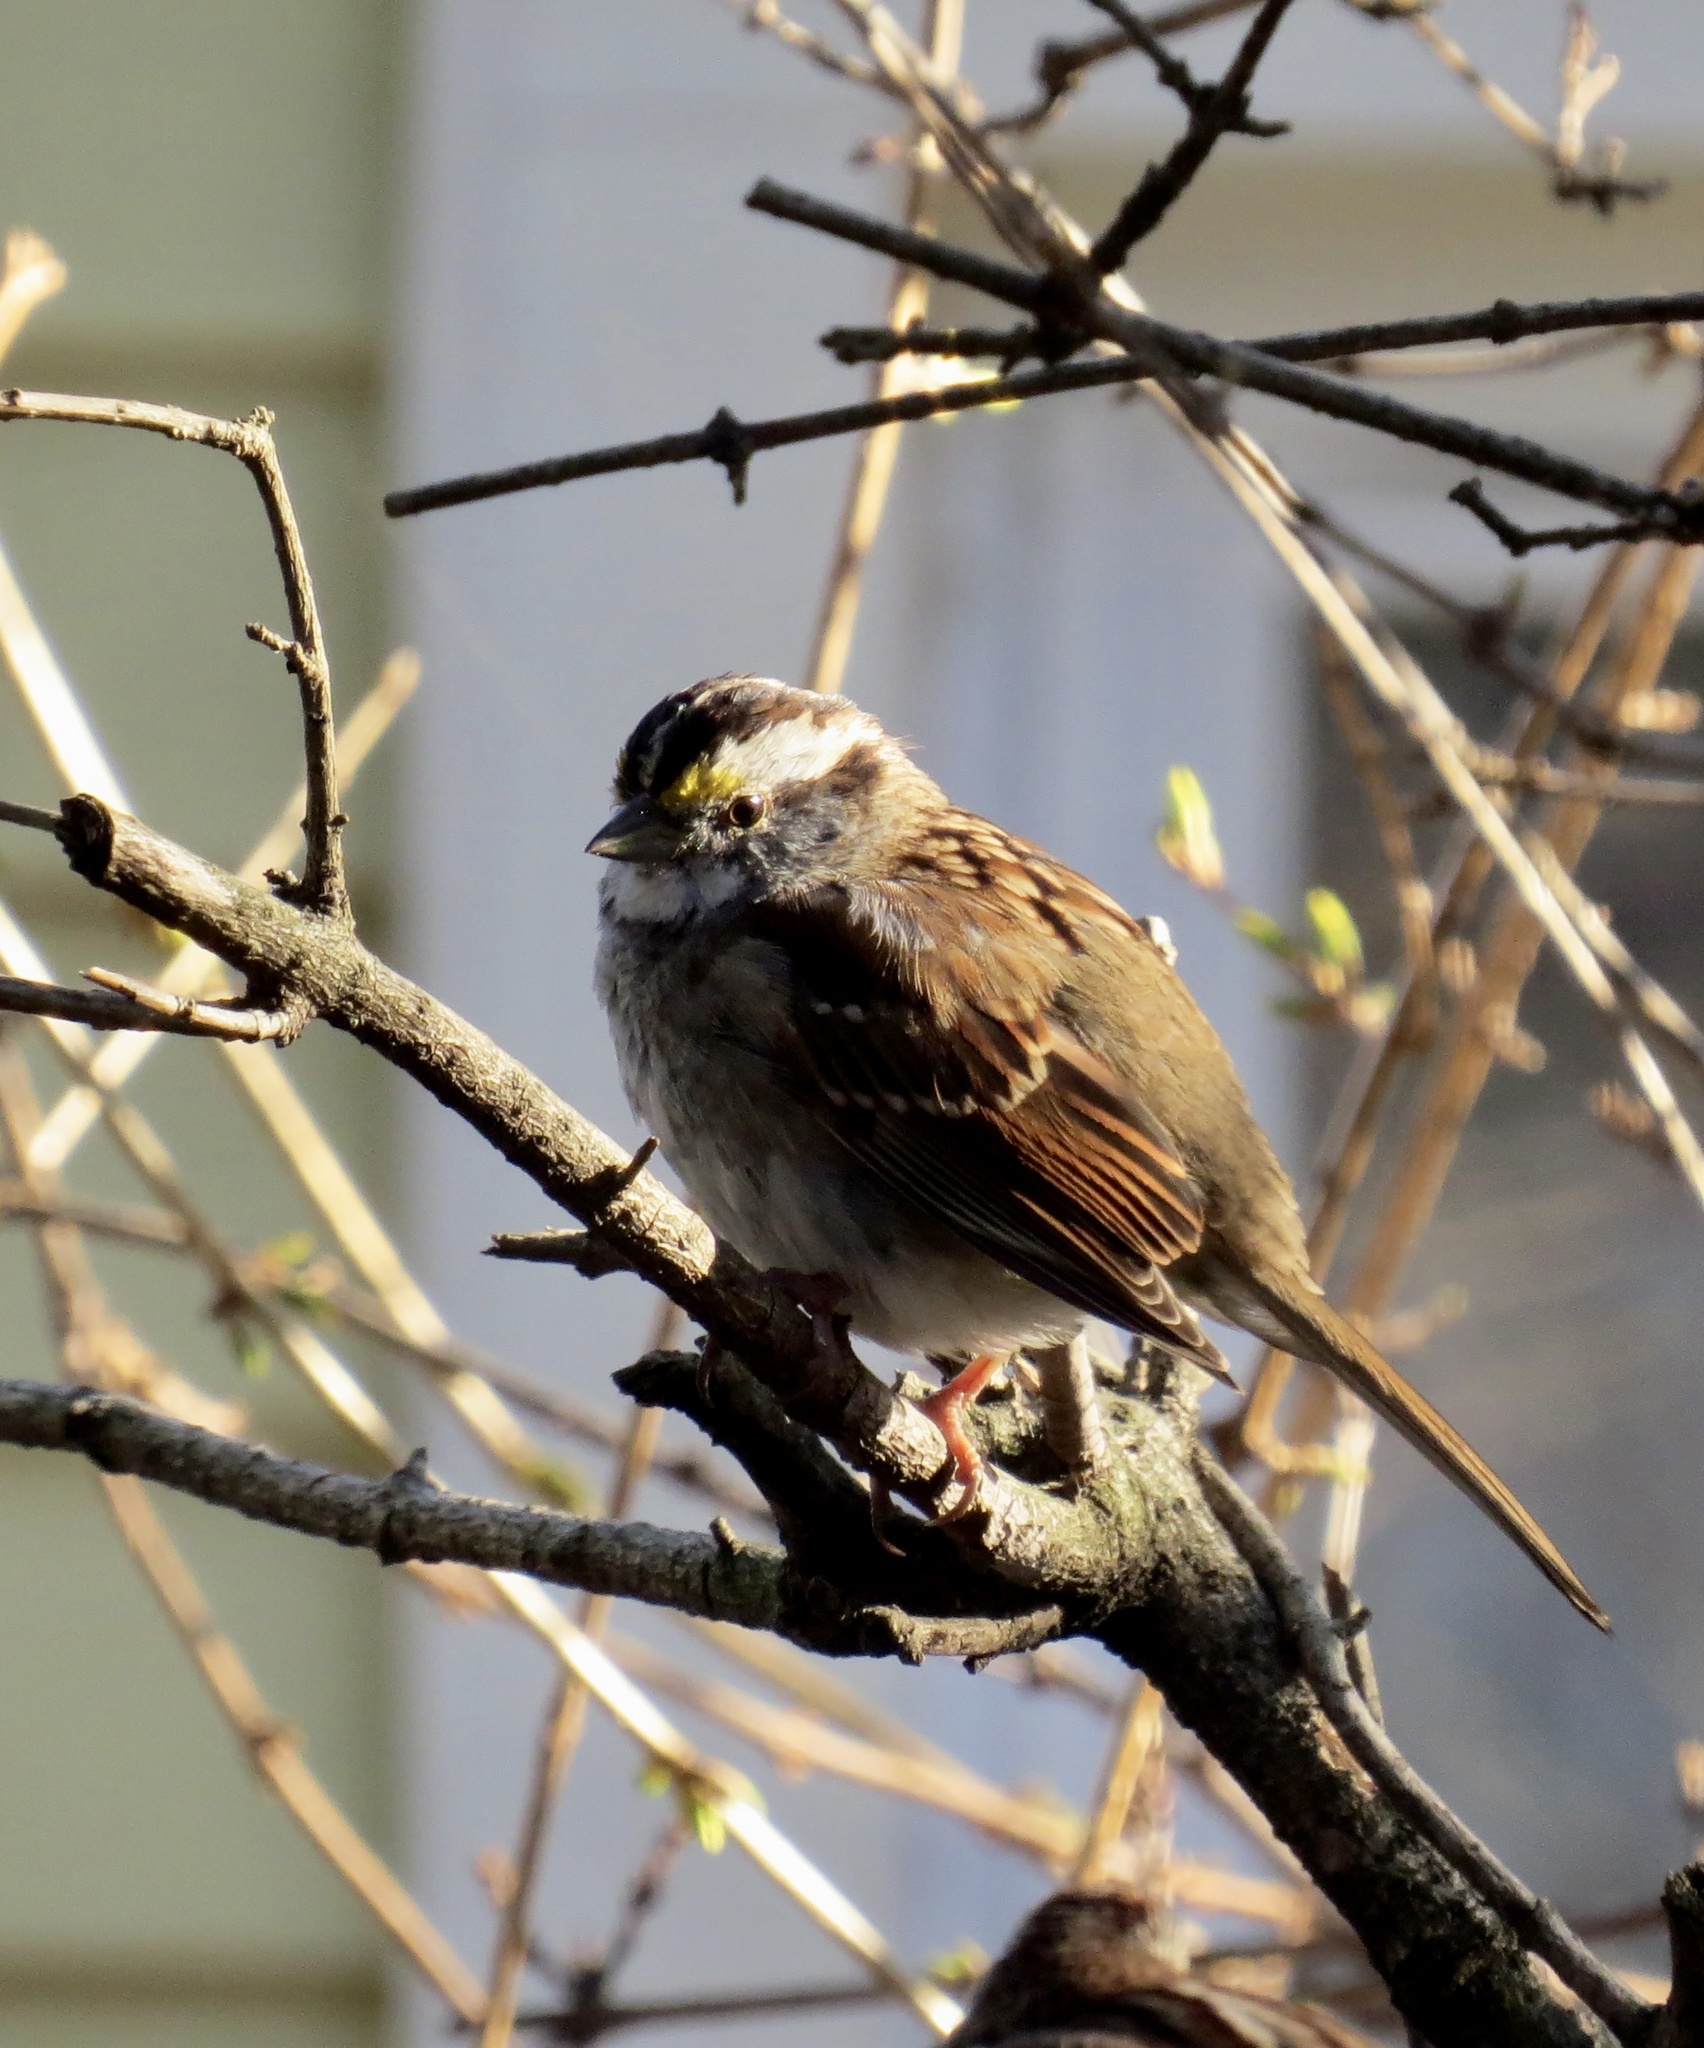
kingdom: Animalia
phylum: Chordata
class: Aves
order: Passeriformes
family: Passerellidae
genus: Zonotrichia
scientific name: Zonotrichia albicollis
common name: White-throated sparrow
